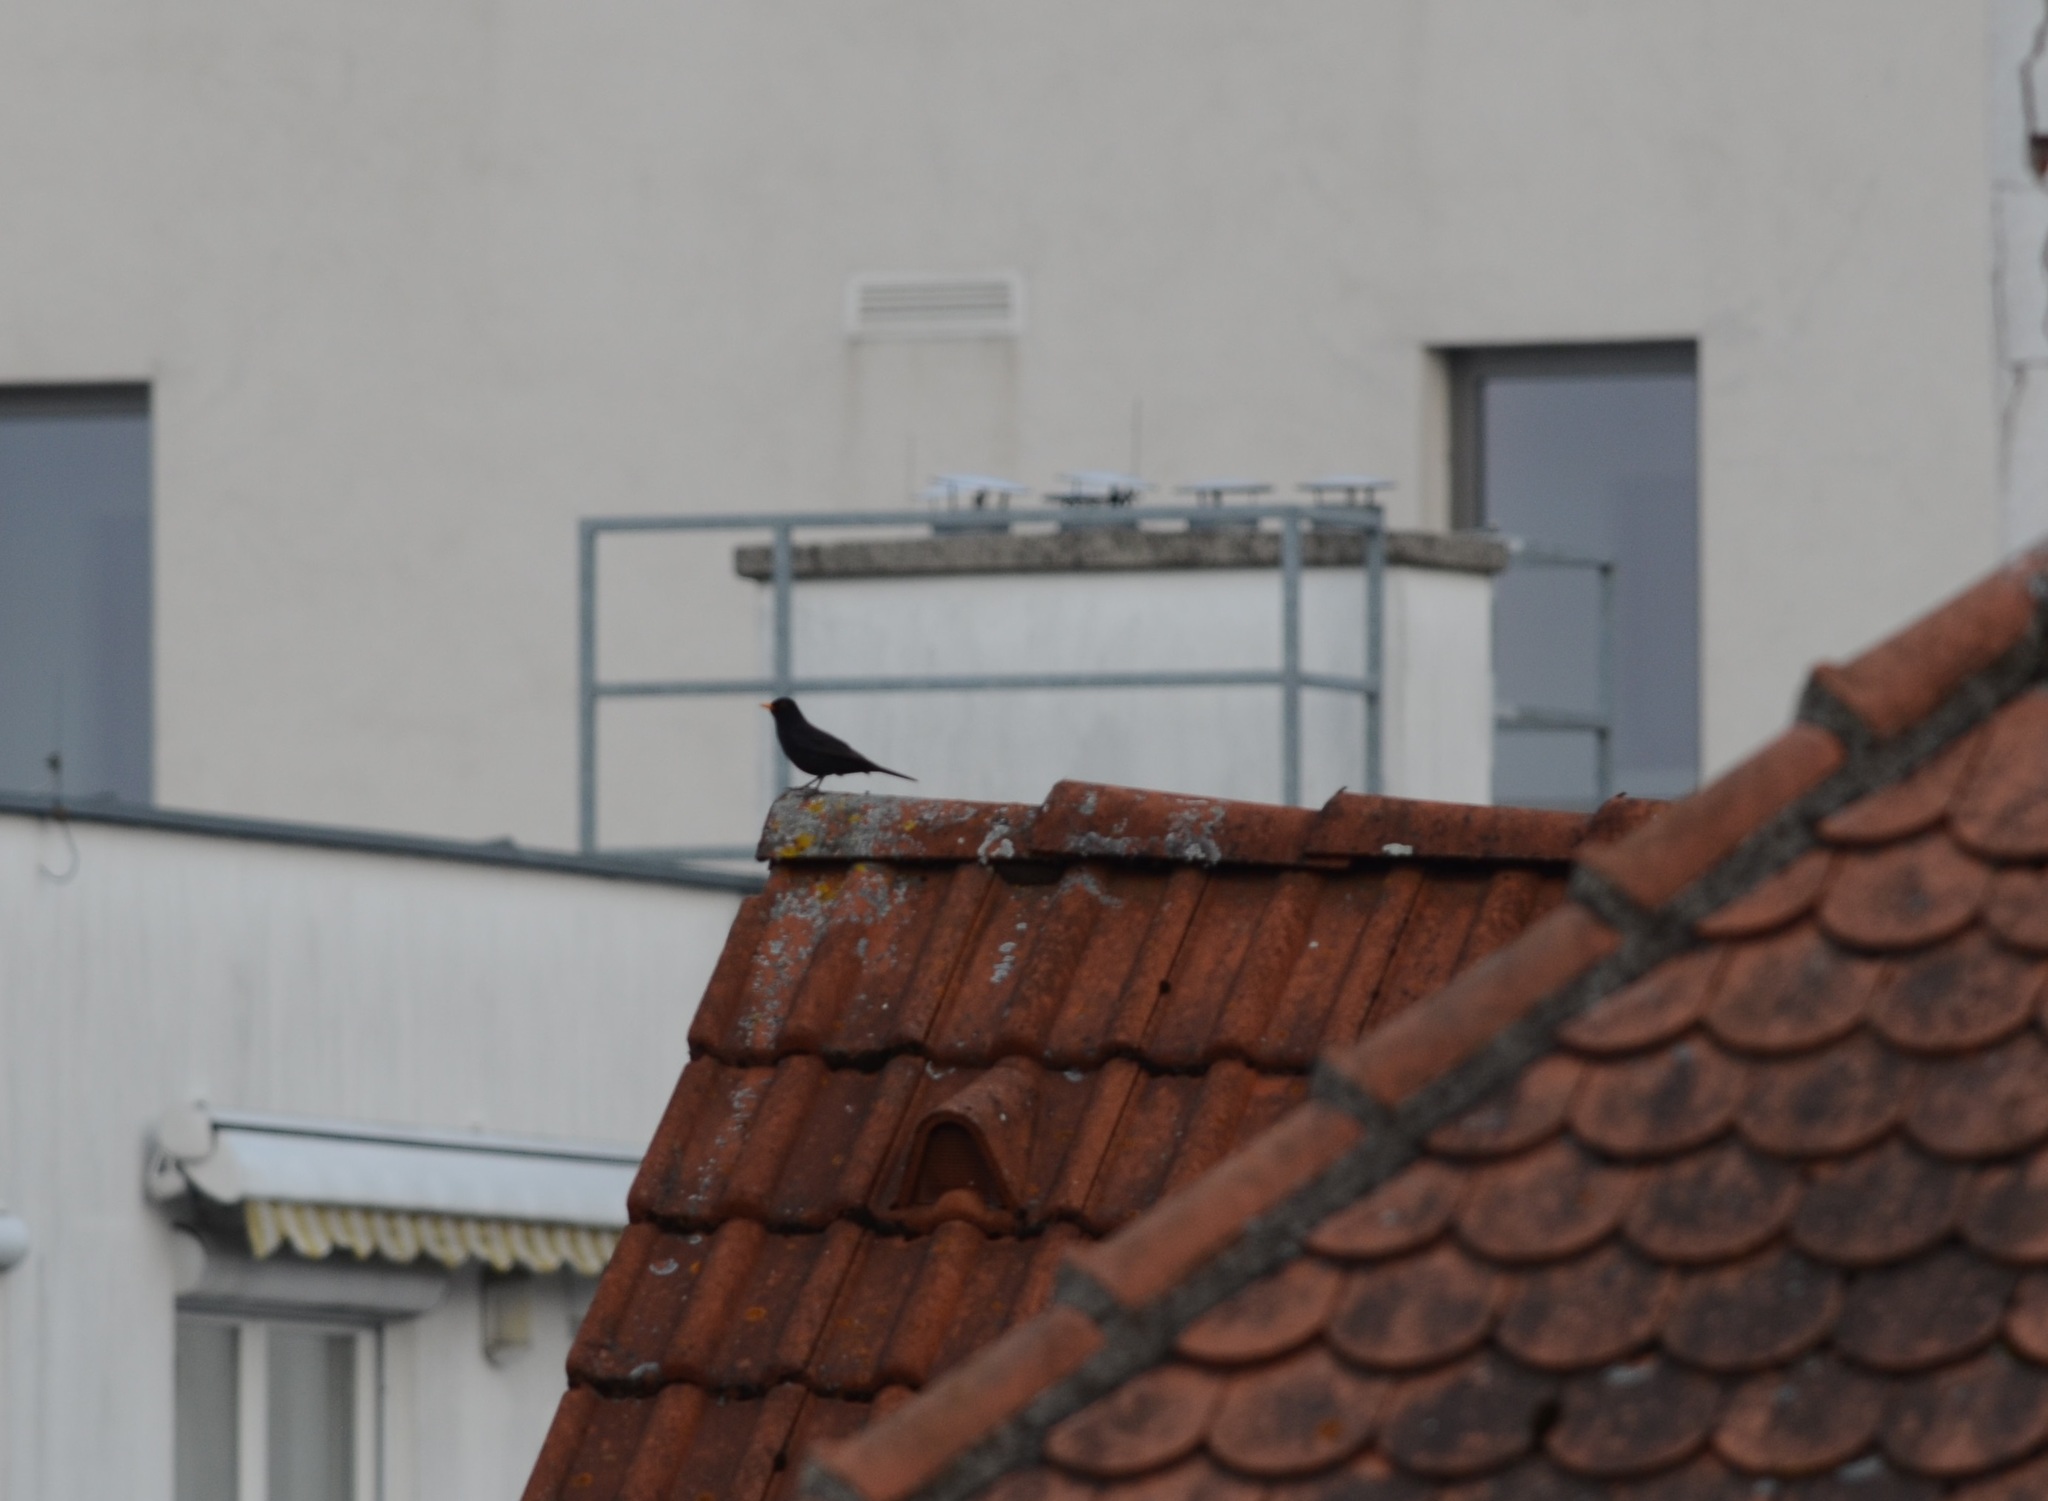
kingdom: Animalia
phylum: Chordata
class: Aves
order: Passeriformes
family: Turdidae
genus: Turdus
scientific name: Turdus merula
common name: Common blackbird
